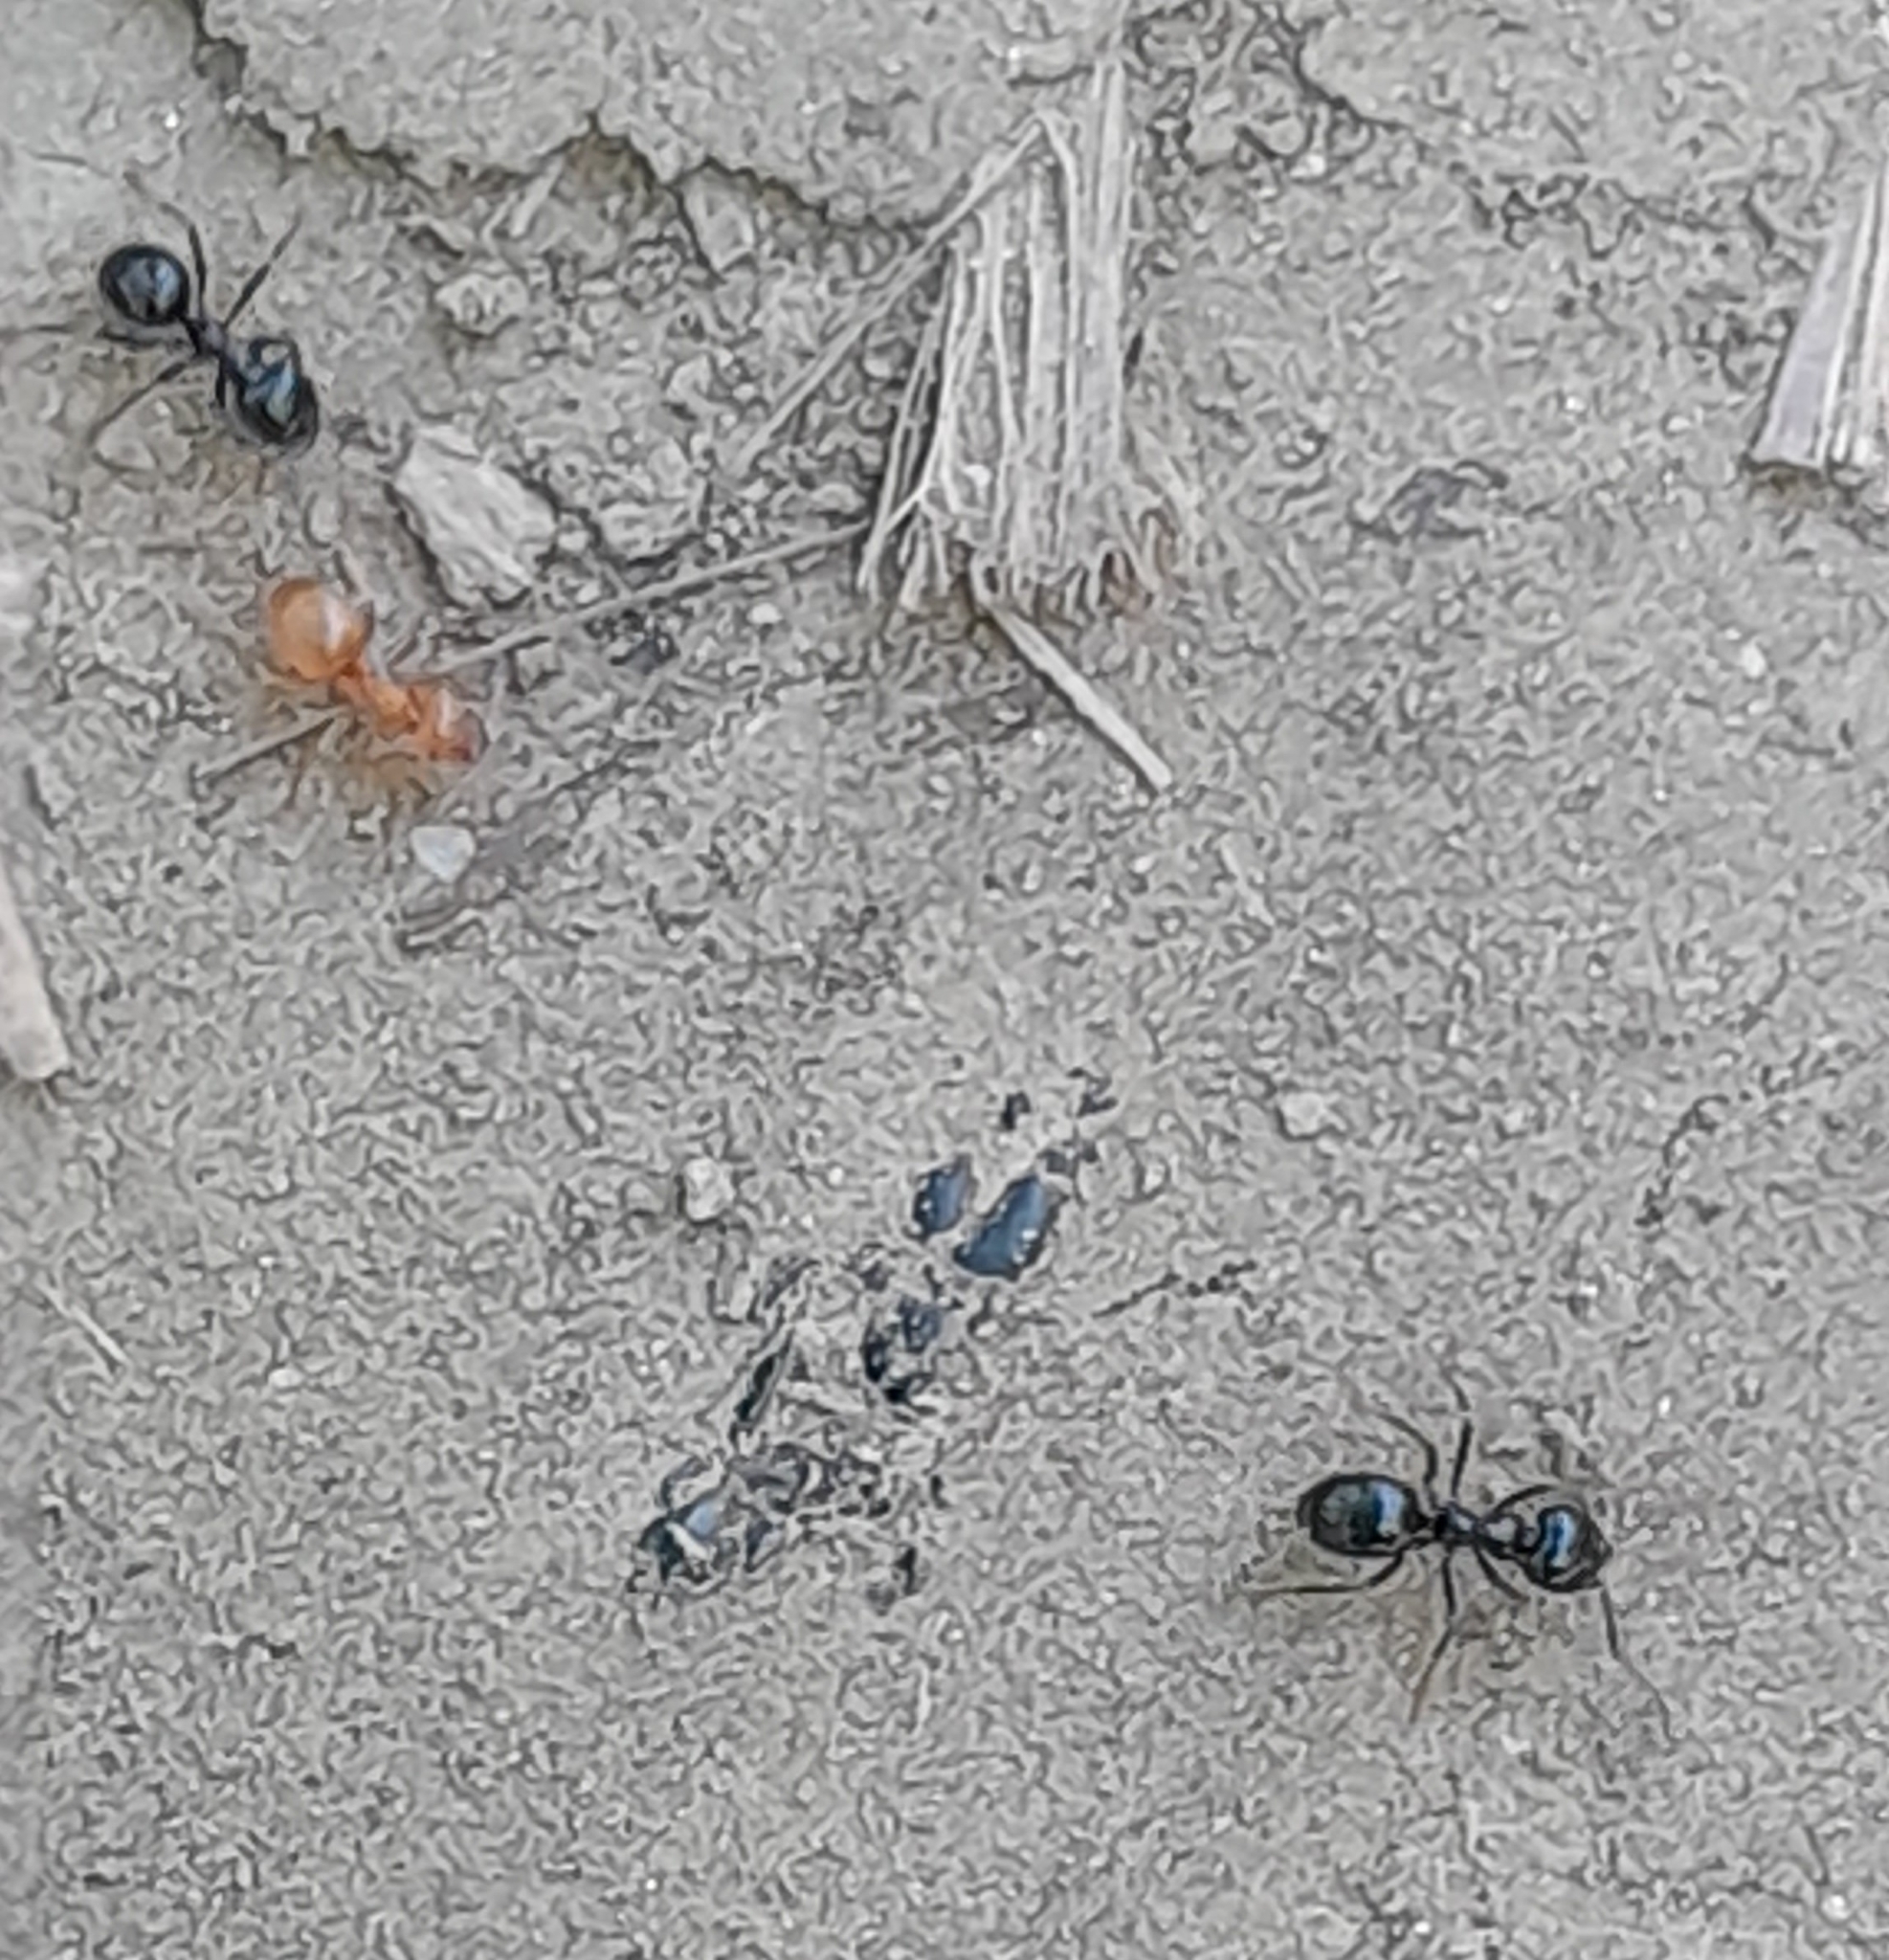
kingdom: Animalia
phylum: Arthropoda
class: Insecta
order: Hymenoptera
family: Formicidae
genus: Lasius
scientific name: Lasius fuliginosus
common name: Jet ant
